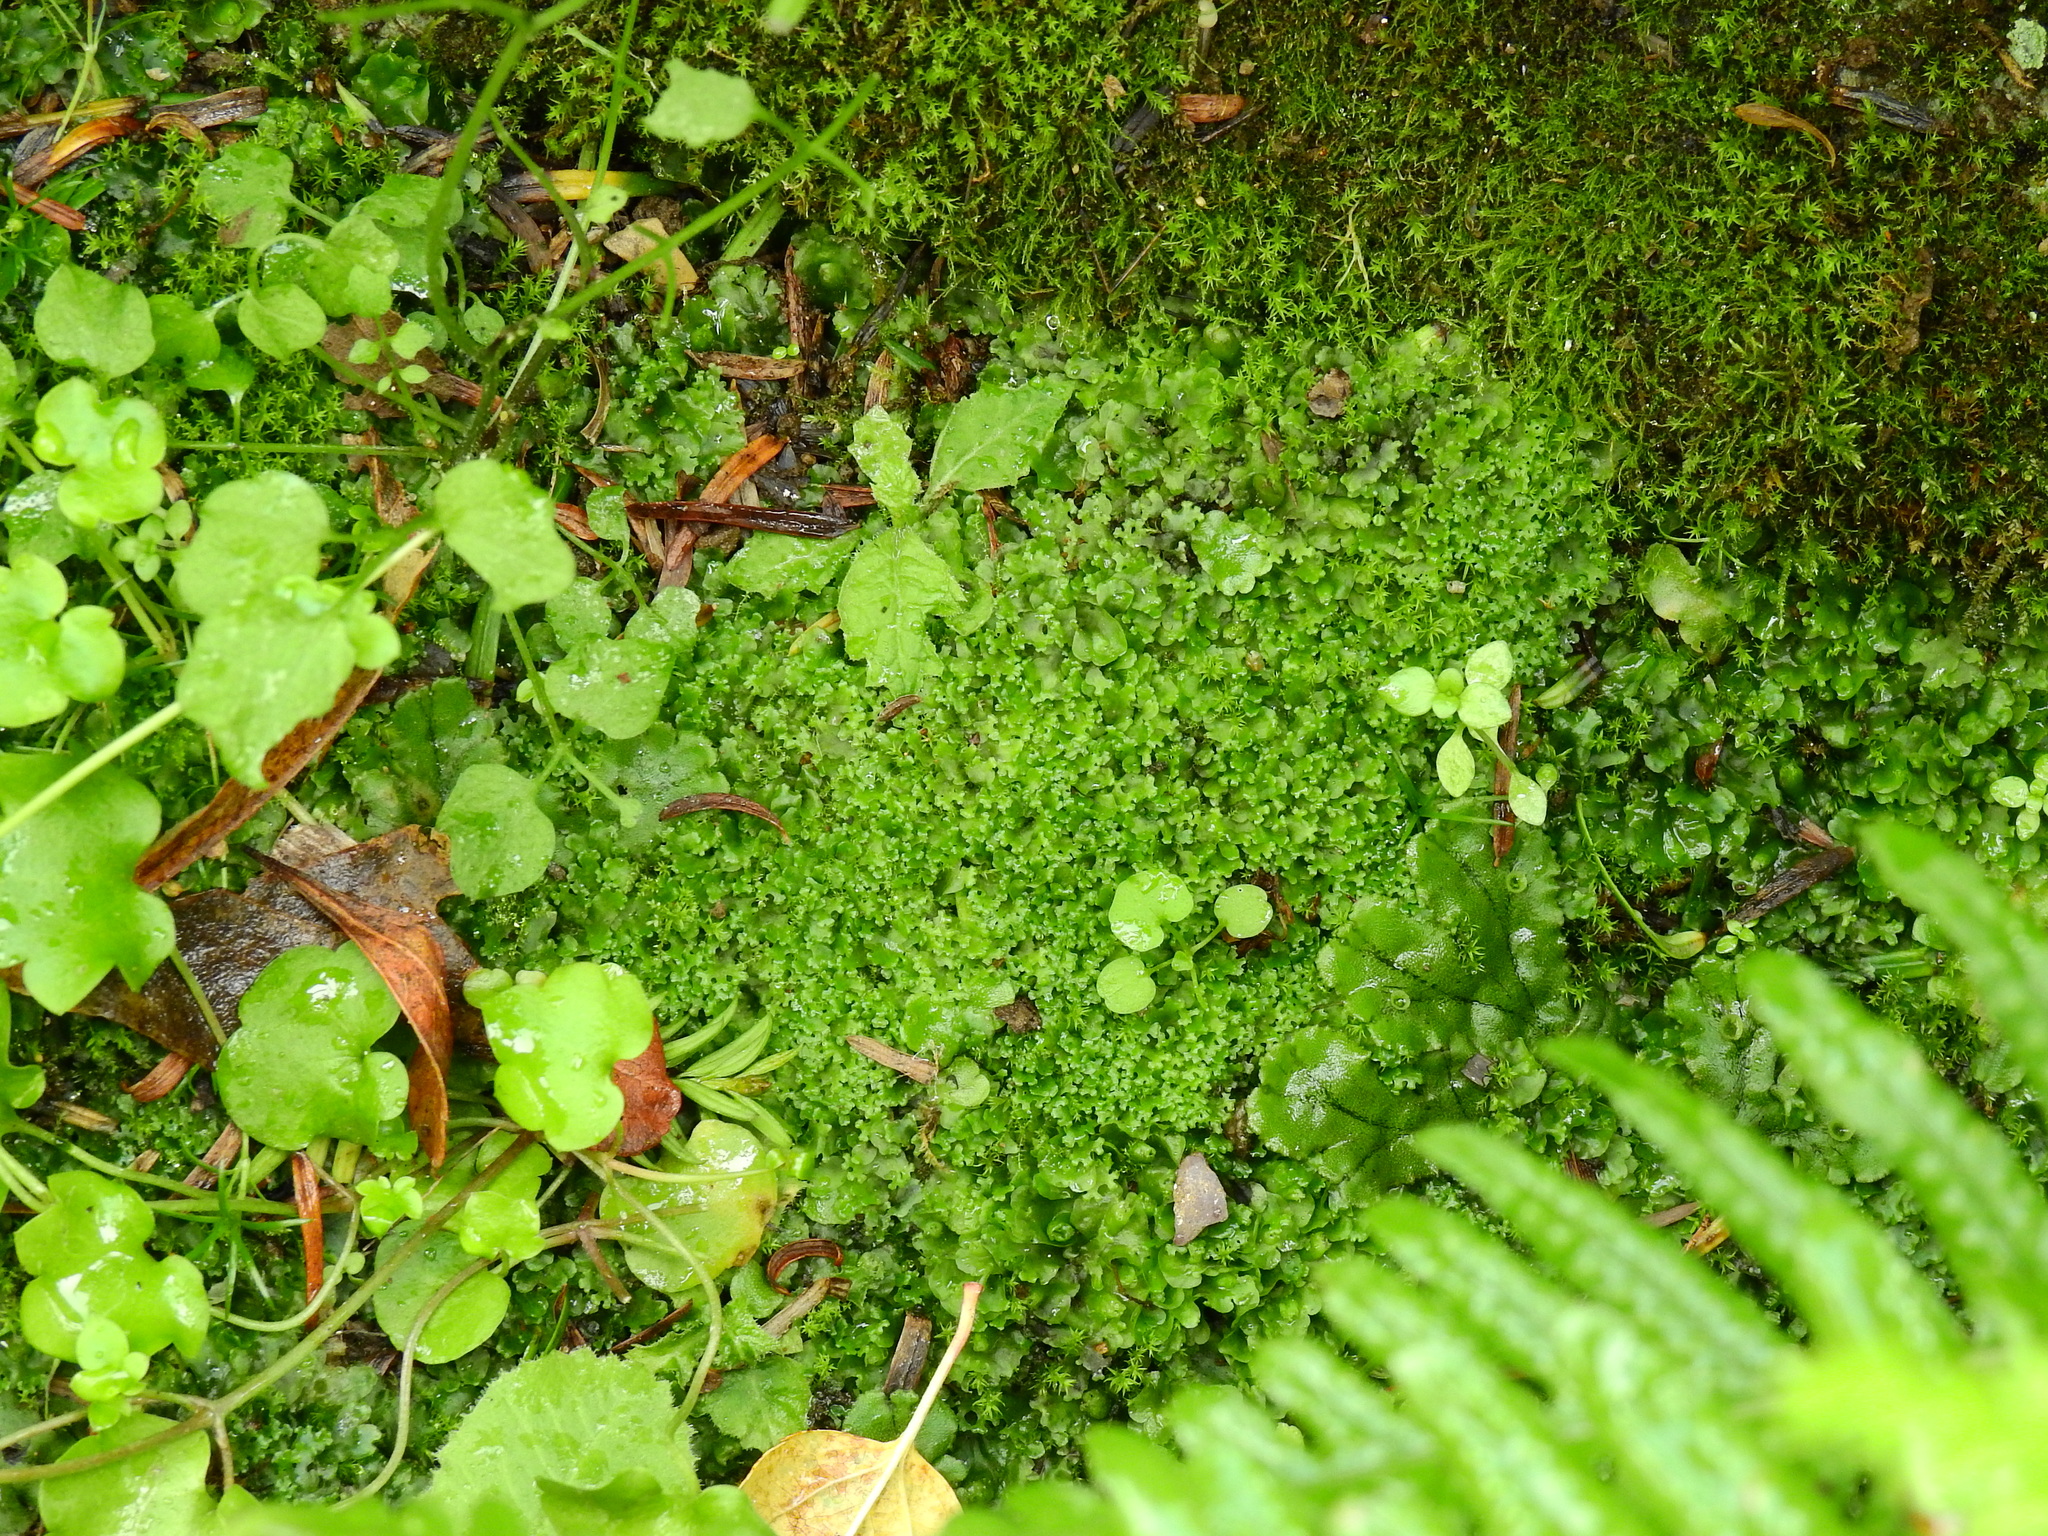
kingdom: Plantae
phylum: Marchantiophyta
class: Jungermanniopsida
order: Pelliales
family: Pelliaceae
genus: Apopellia
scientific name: Apopellia endiviifolia
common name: Endive pellia
